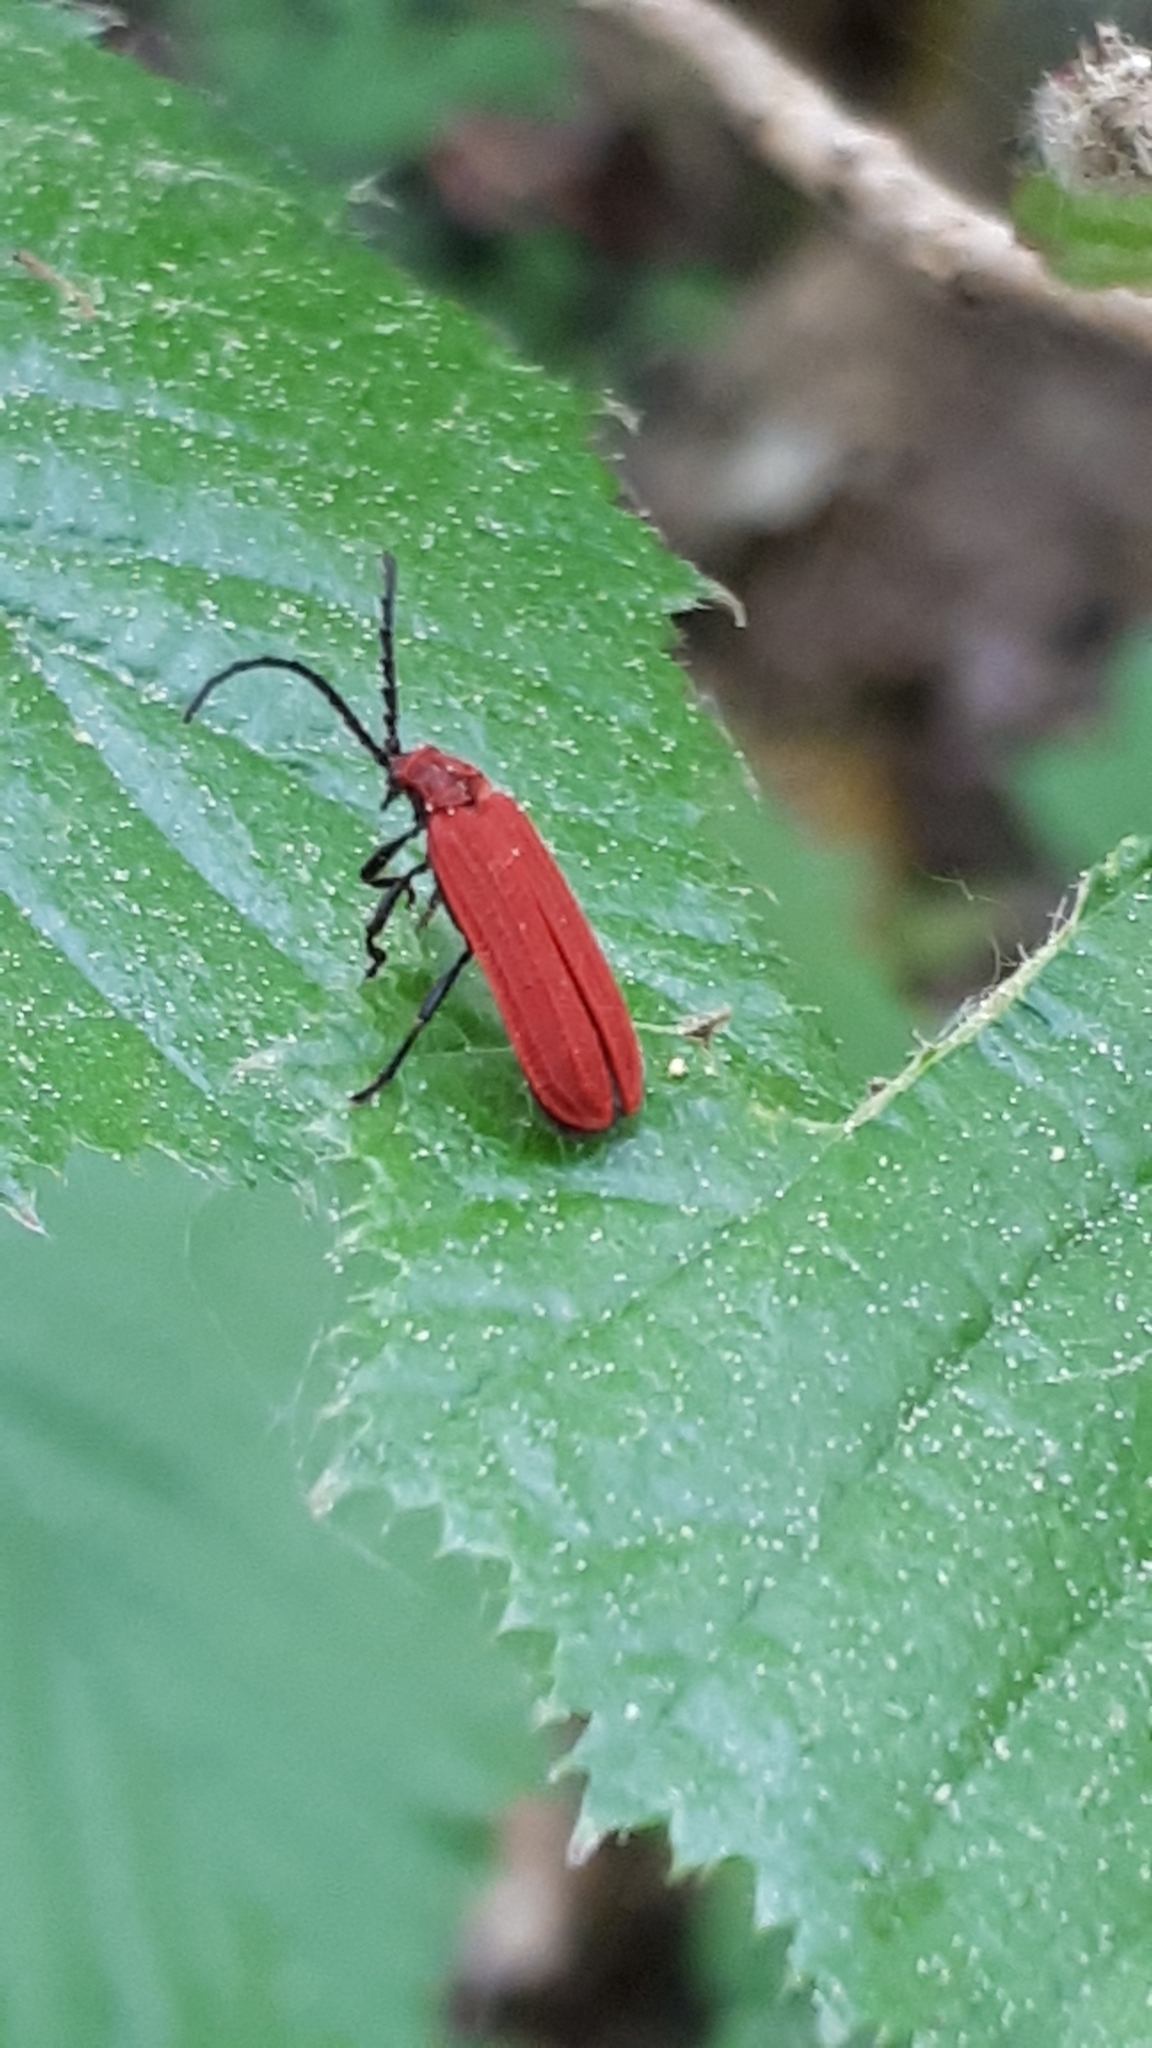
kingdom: Animalia
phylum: Arthropoda
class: Insecta
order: Coleoptera
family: Lycidae
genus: Lopheros
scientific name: Lopheros rubens
